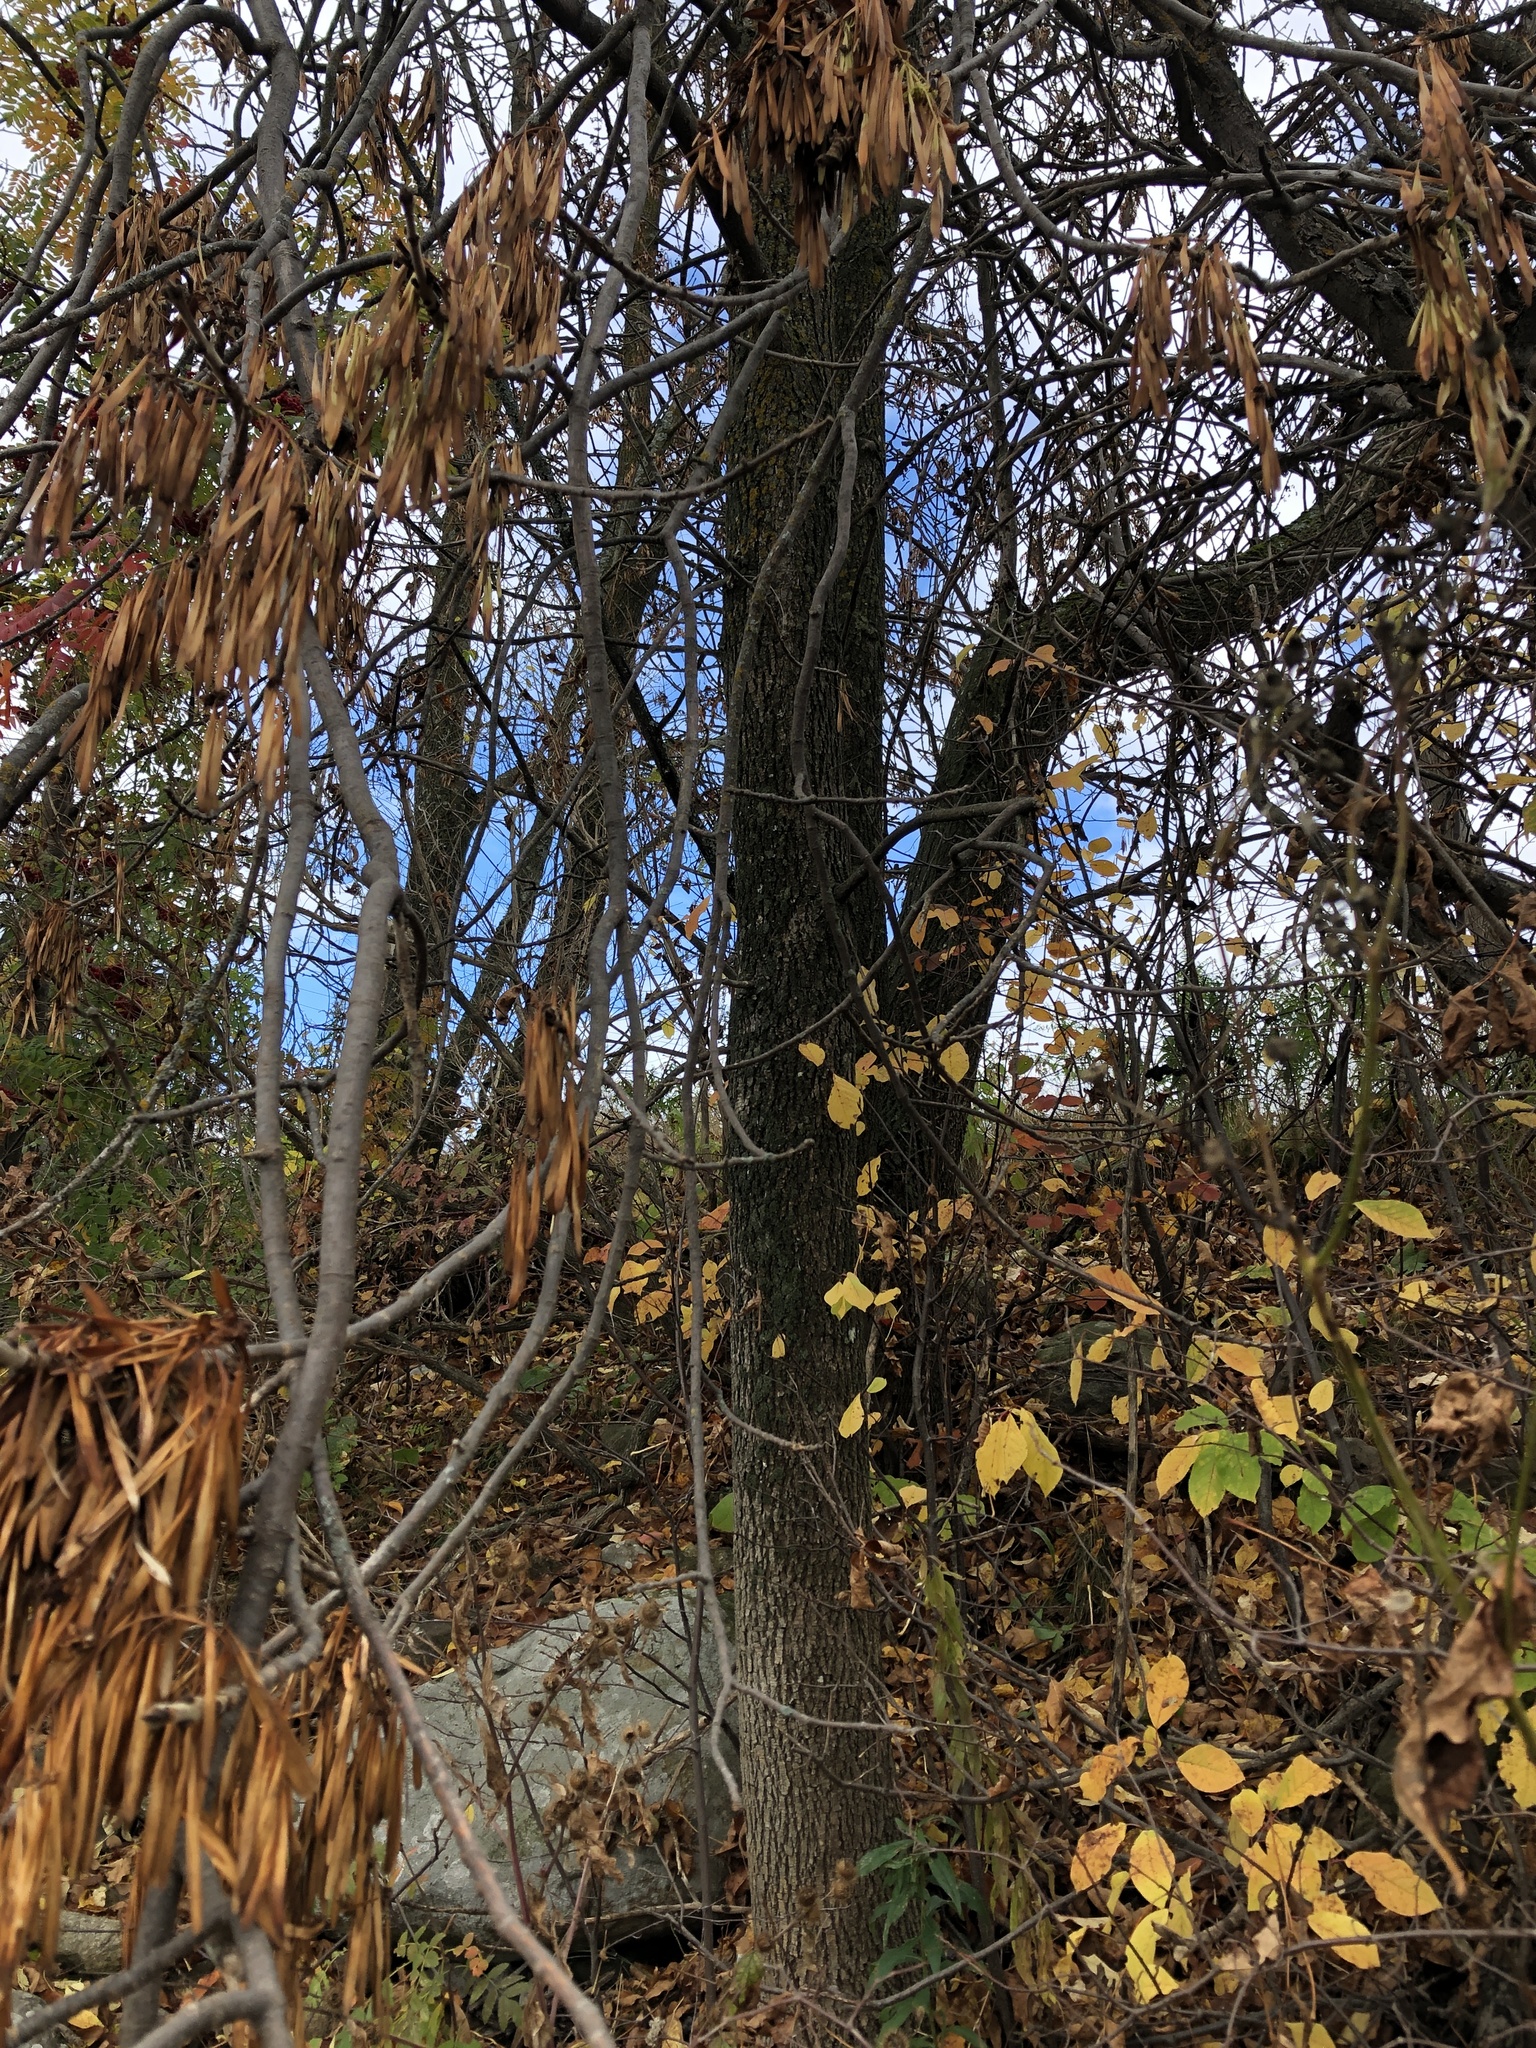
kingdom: Plantae
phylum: Tracheophyta
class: Magnoliopsida
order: Lamiales
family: Oleaceae
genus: Fraxinus
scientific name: Fraxinus pennsylvanica
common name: Green ash
